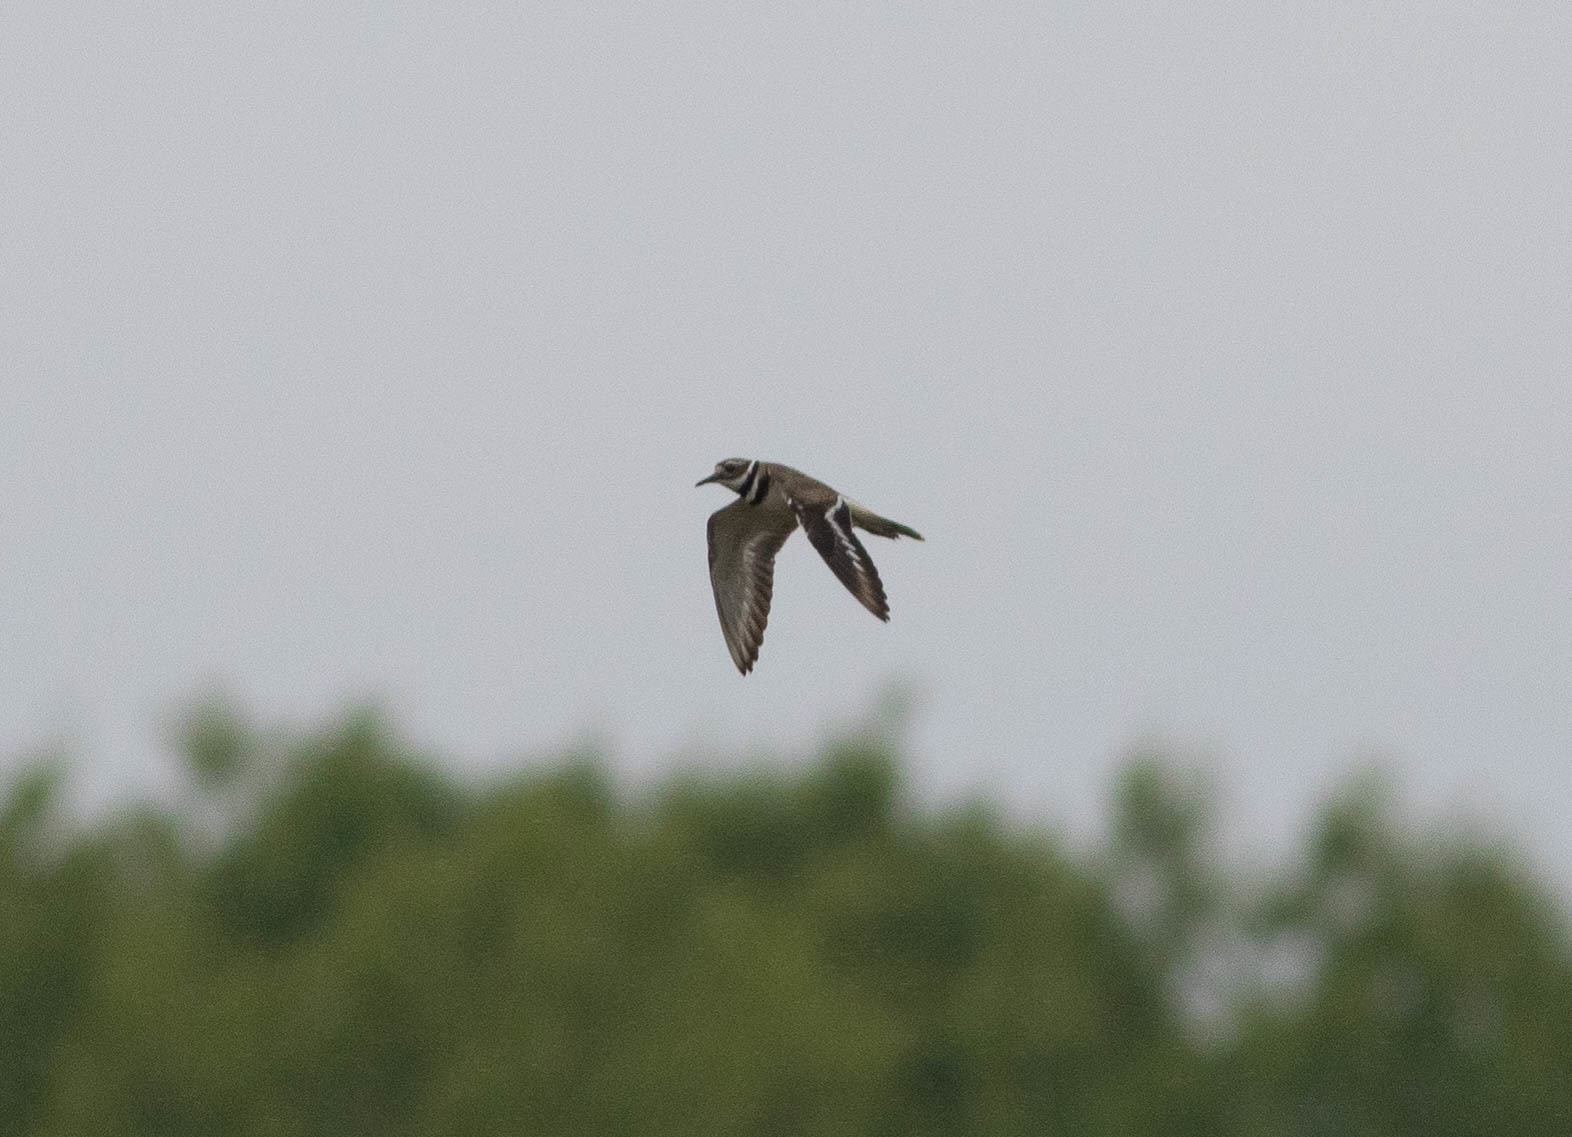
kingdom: Animalia
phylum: Chordata
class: Aves
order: Charadriiformes
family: Charadriidae
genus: Charadrius
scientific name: Charadrius vociferus
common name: Killdeer
